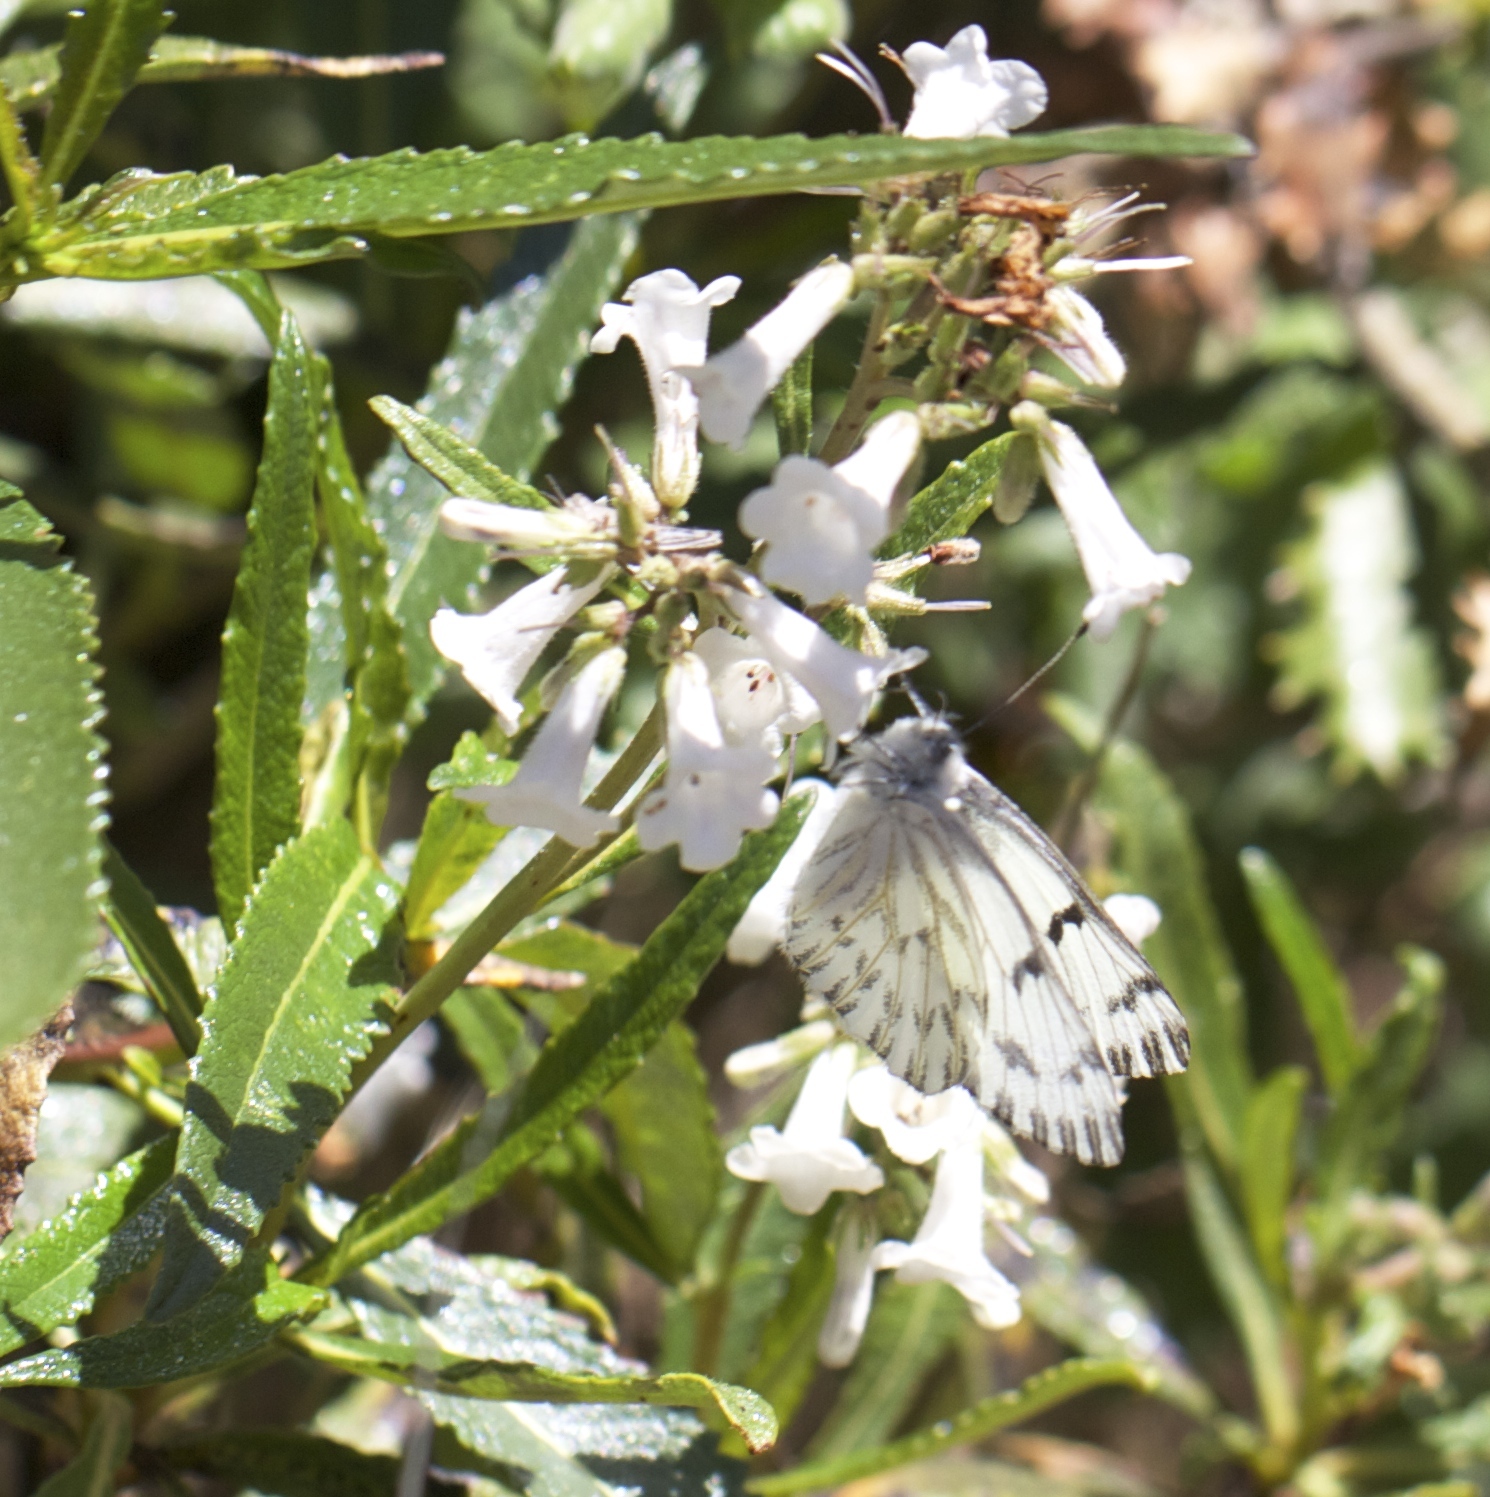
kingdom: Animalia
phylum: Arthropoda
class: Insecta
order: Lepidoptera
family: Pieridae
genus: Pontia
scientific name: Pontia sisymbrii
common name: California white
